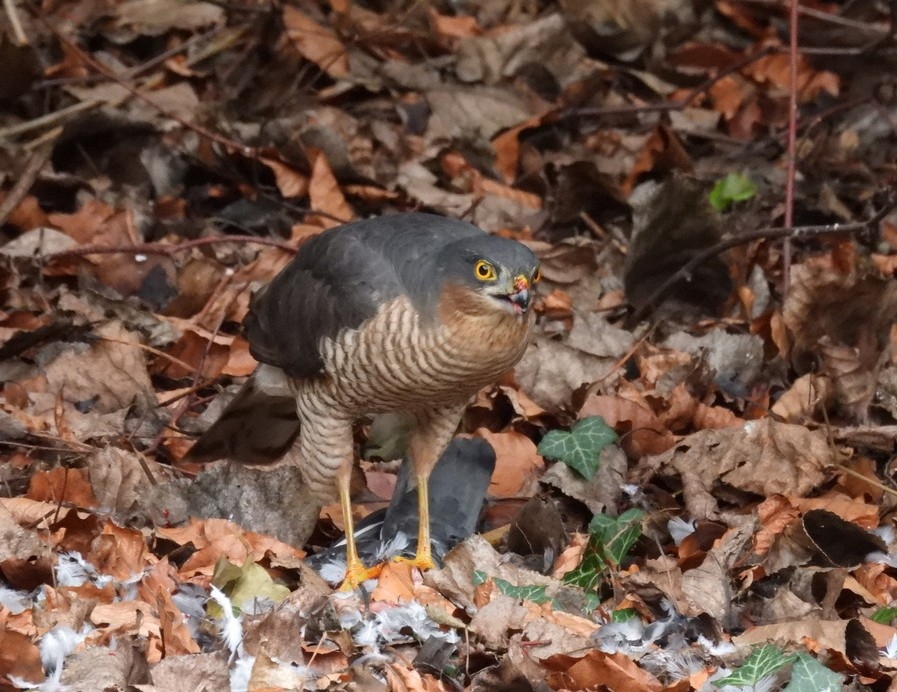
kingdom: Animalia
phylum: Chordata
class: Aves
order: Accipitriformes
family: Accipitridae
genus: Accipiter
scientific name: Accipiter nisus
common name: Eurasian sparrowhawk
